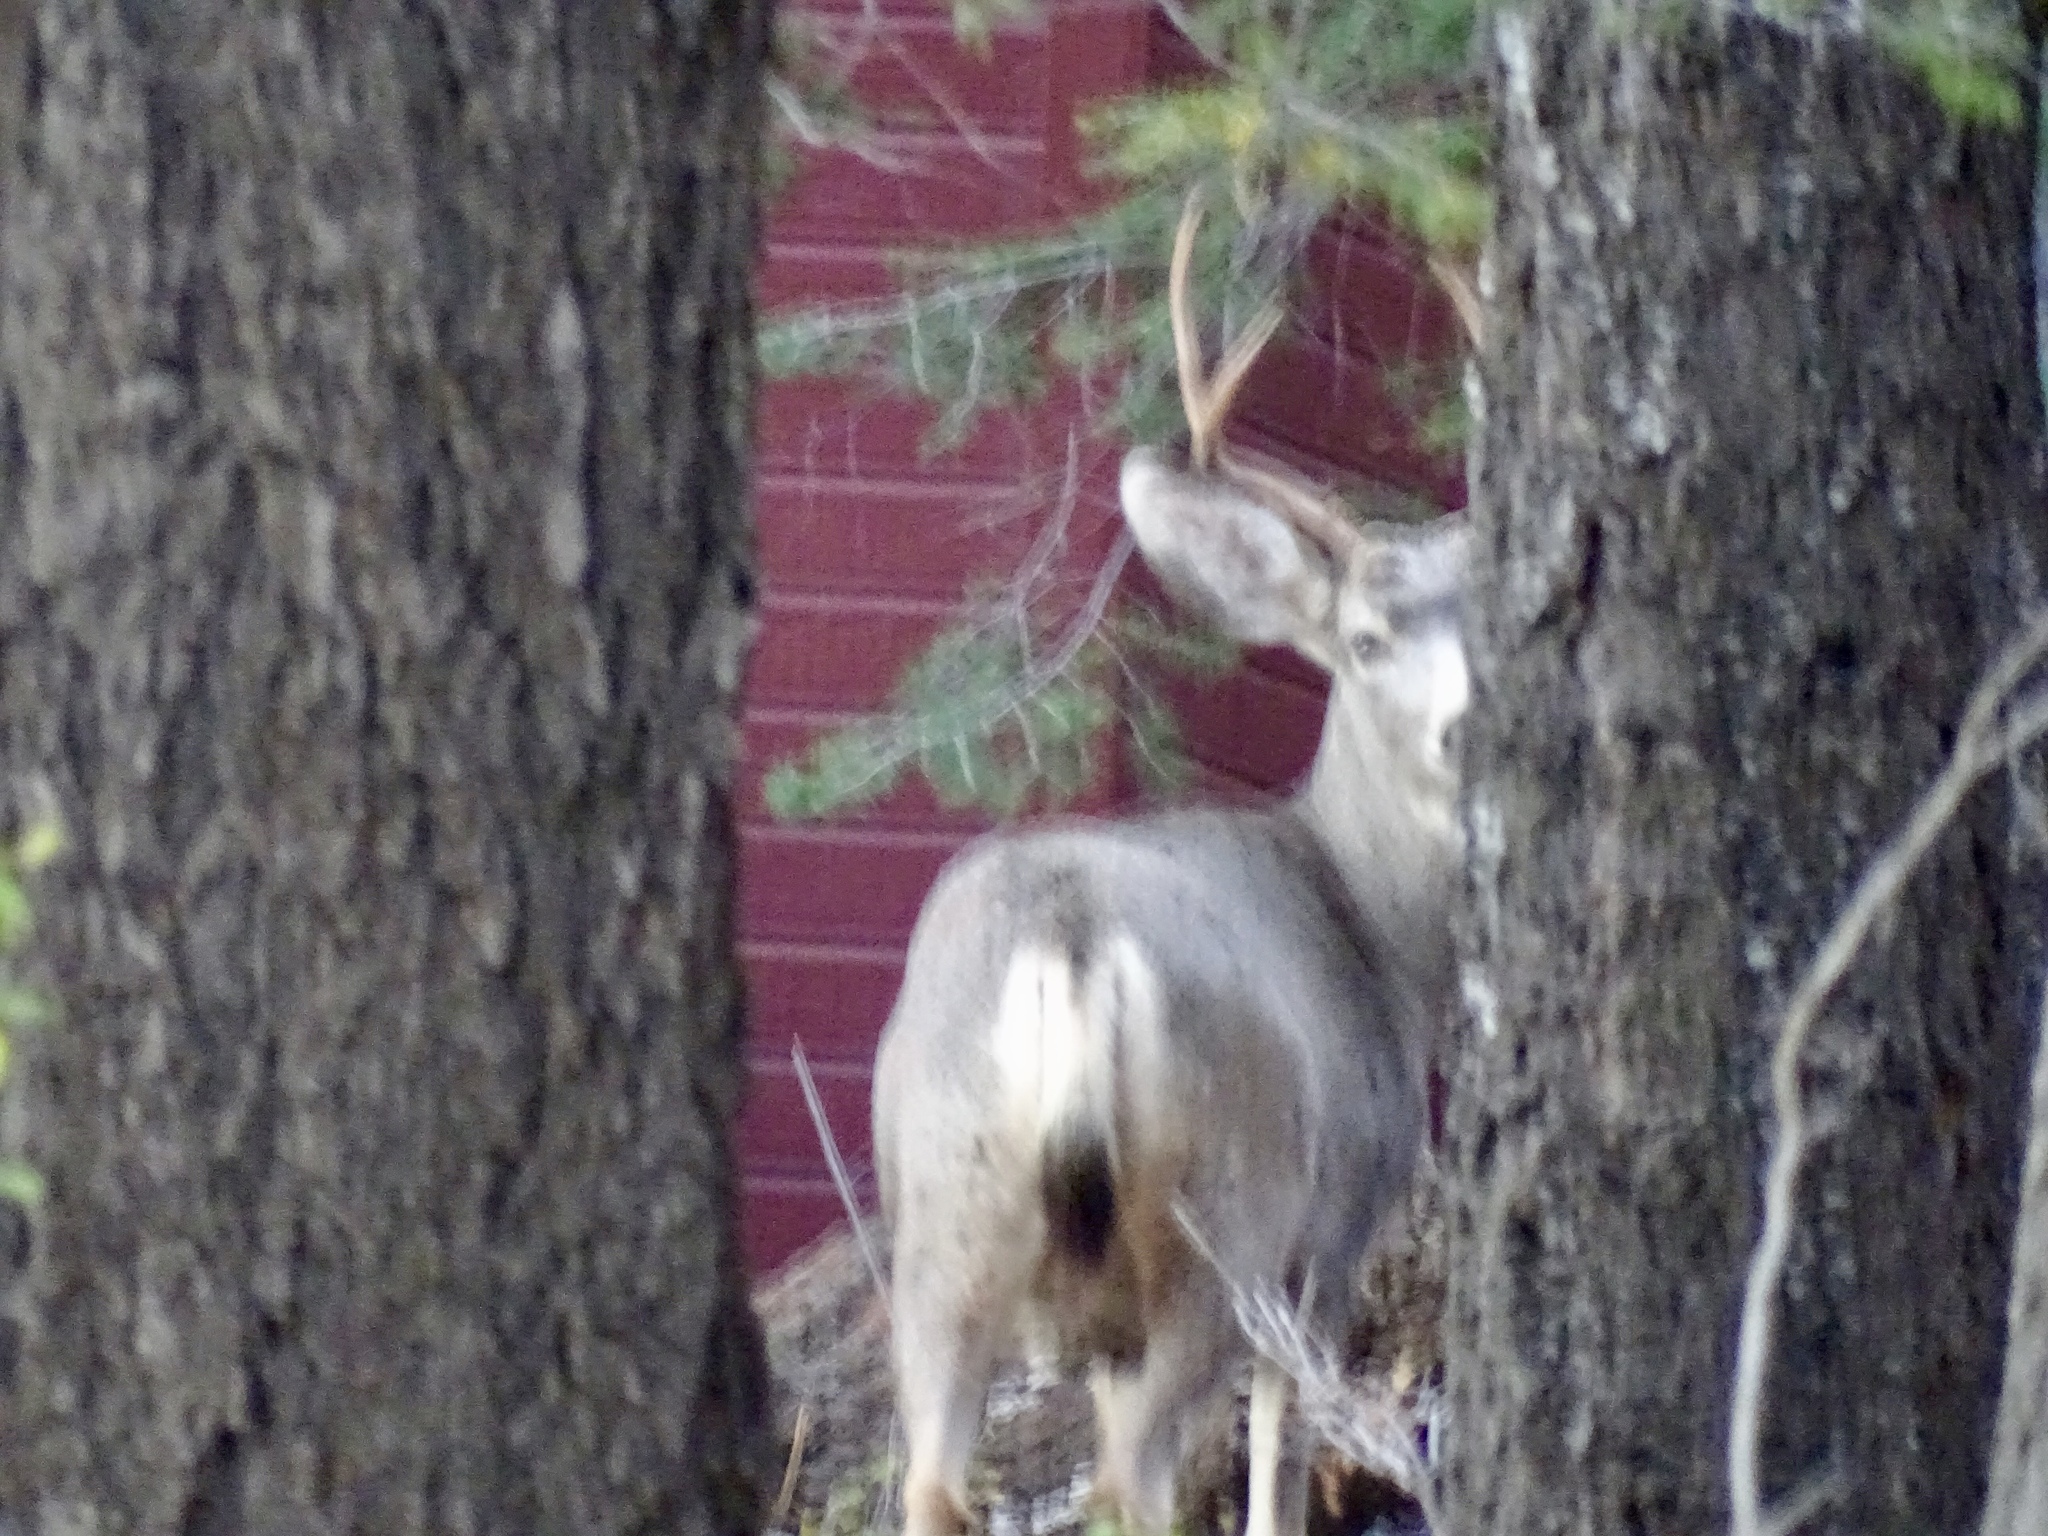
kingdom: Animalia
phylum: Chordata
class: Mammalia
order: Artiodactyla
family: Cervidae
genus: Odocoileus
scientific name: Odocoileus hemionus
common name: Mule deer
